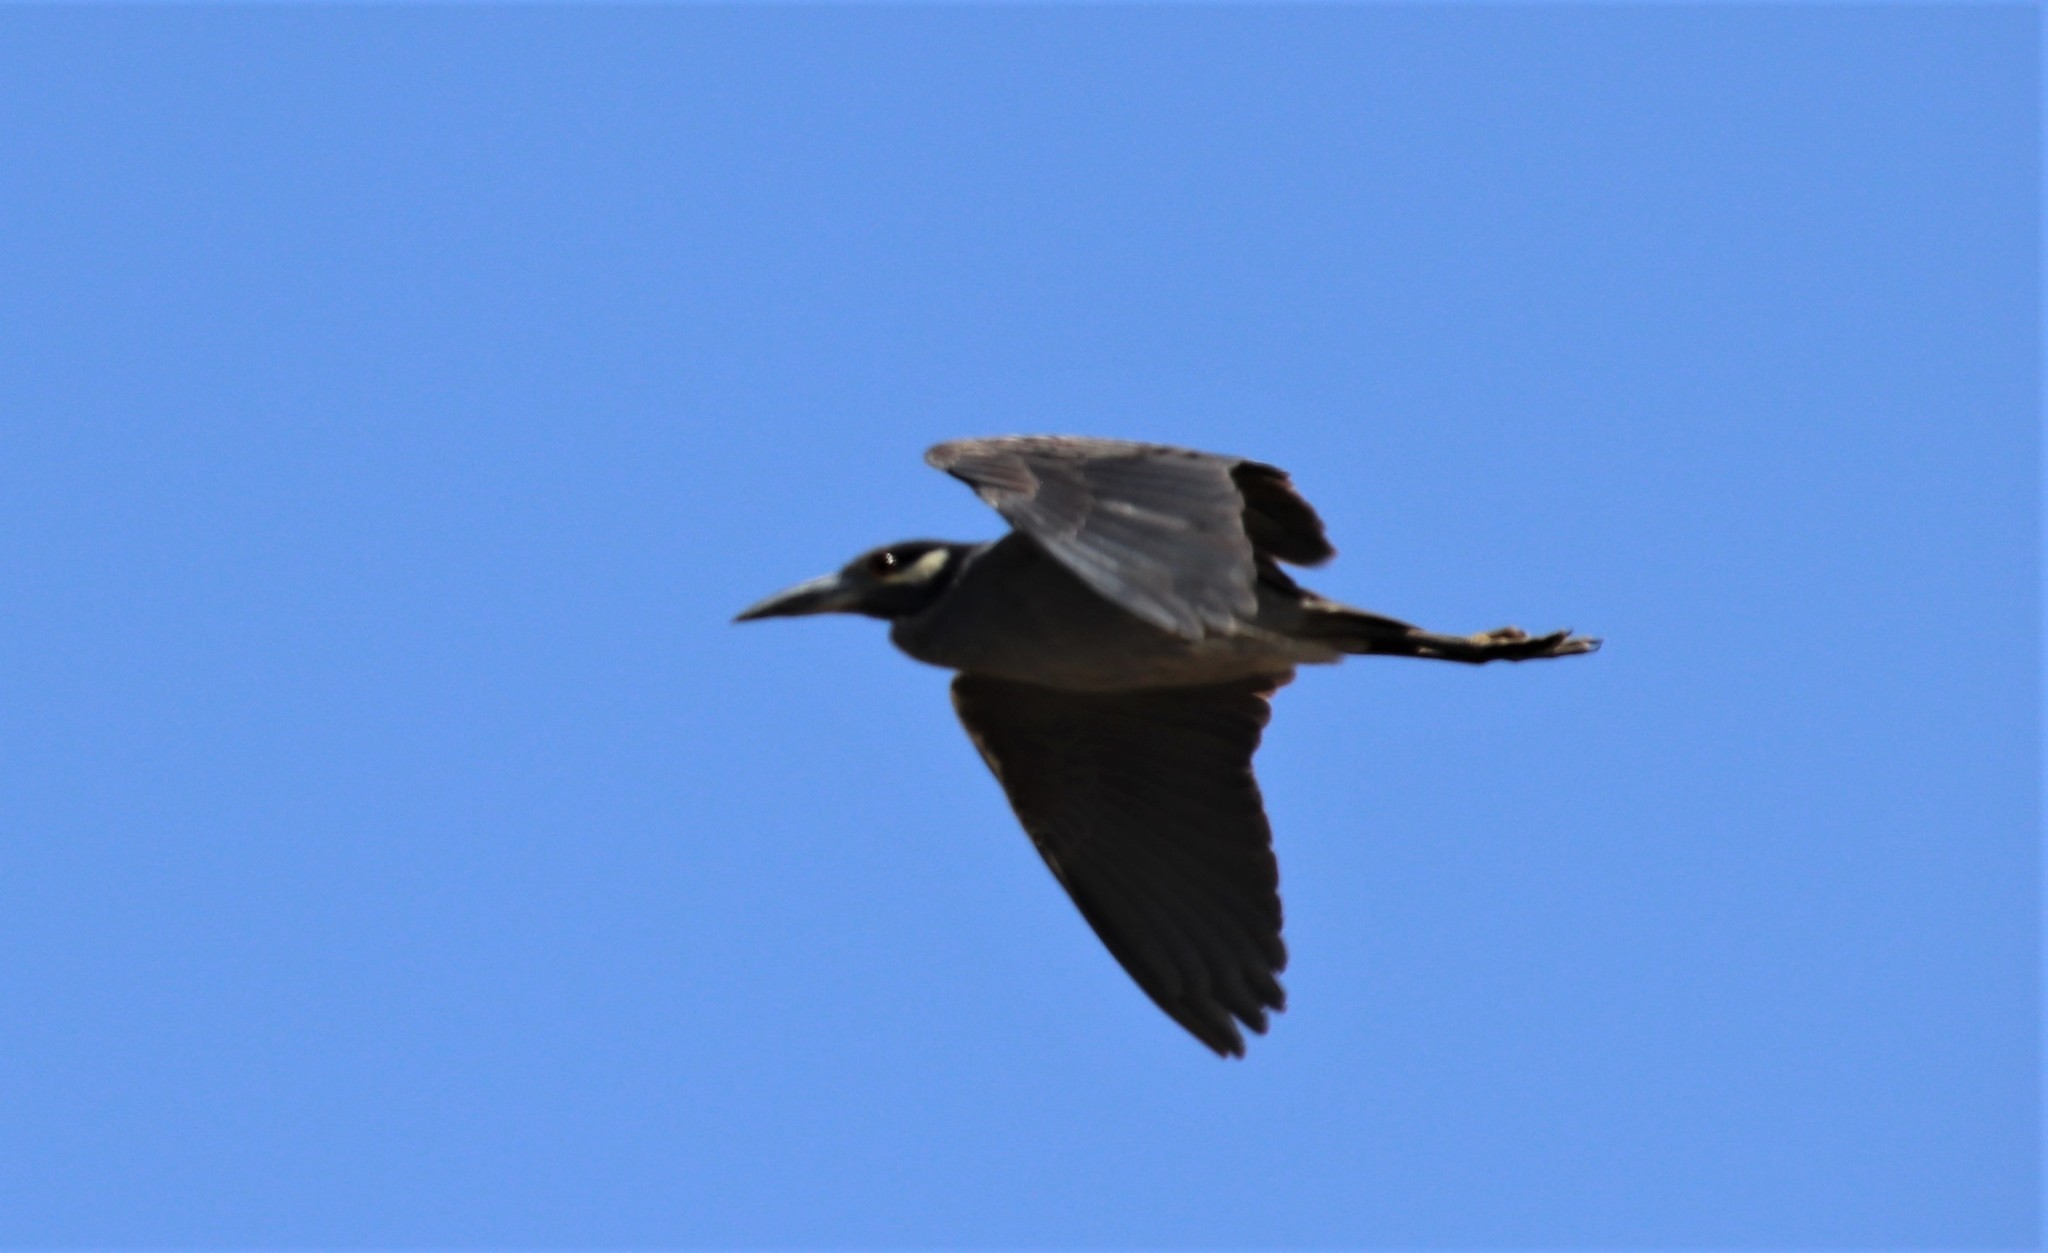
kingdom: Animalia
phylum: Chordata
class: Aves
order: Pelecaniformes
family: Ardeidae
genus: Nyctanassa
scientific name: Nyctanassa violacea
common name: Yellow-crowned night heron
